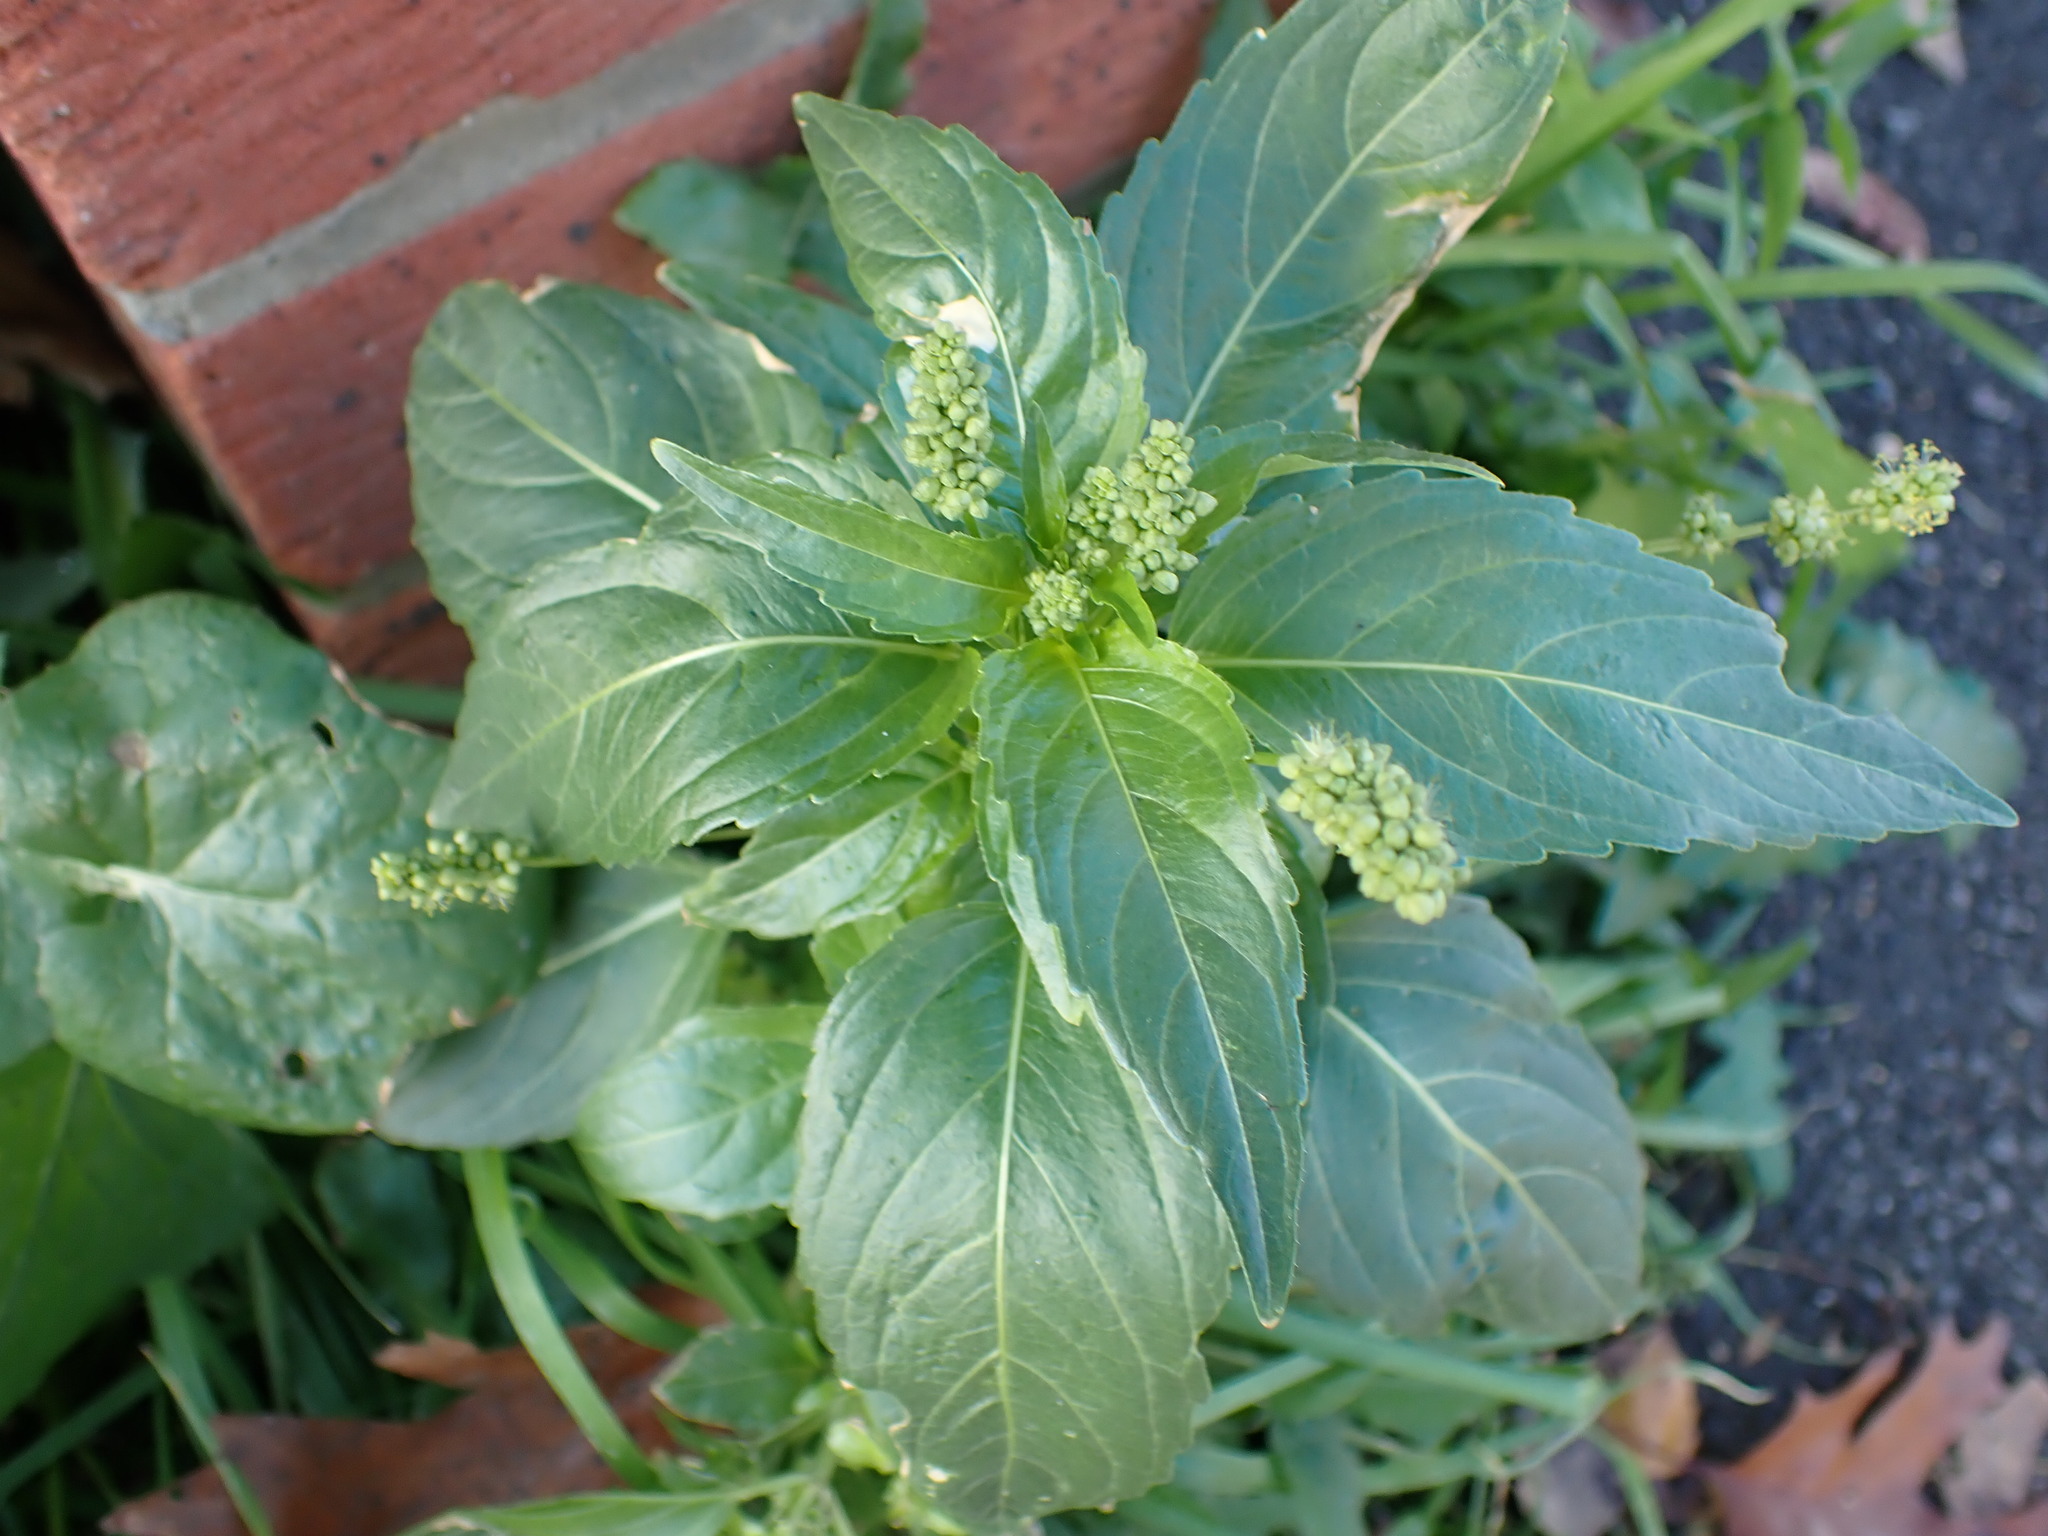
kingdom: Plantae
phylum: Tracheophyta
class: Magnoliopsida
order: Malpighiales
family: Euphorbiaceae
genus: Mercurialis
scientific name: Mercurialis annua
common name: Annual mercury
